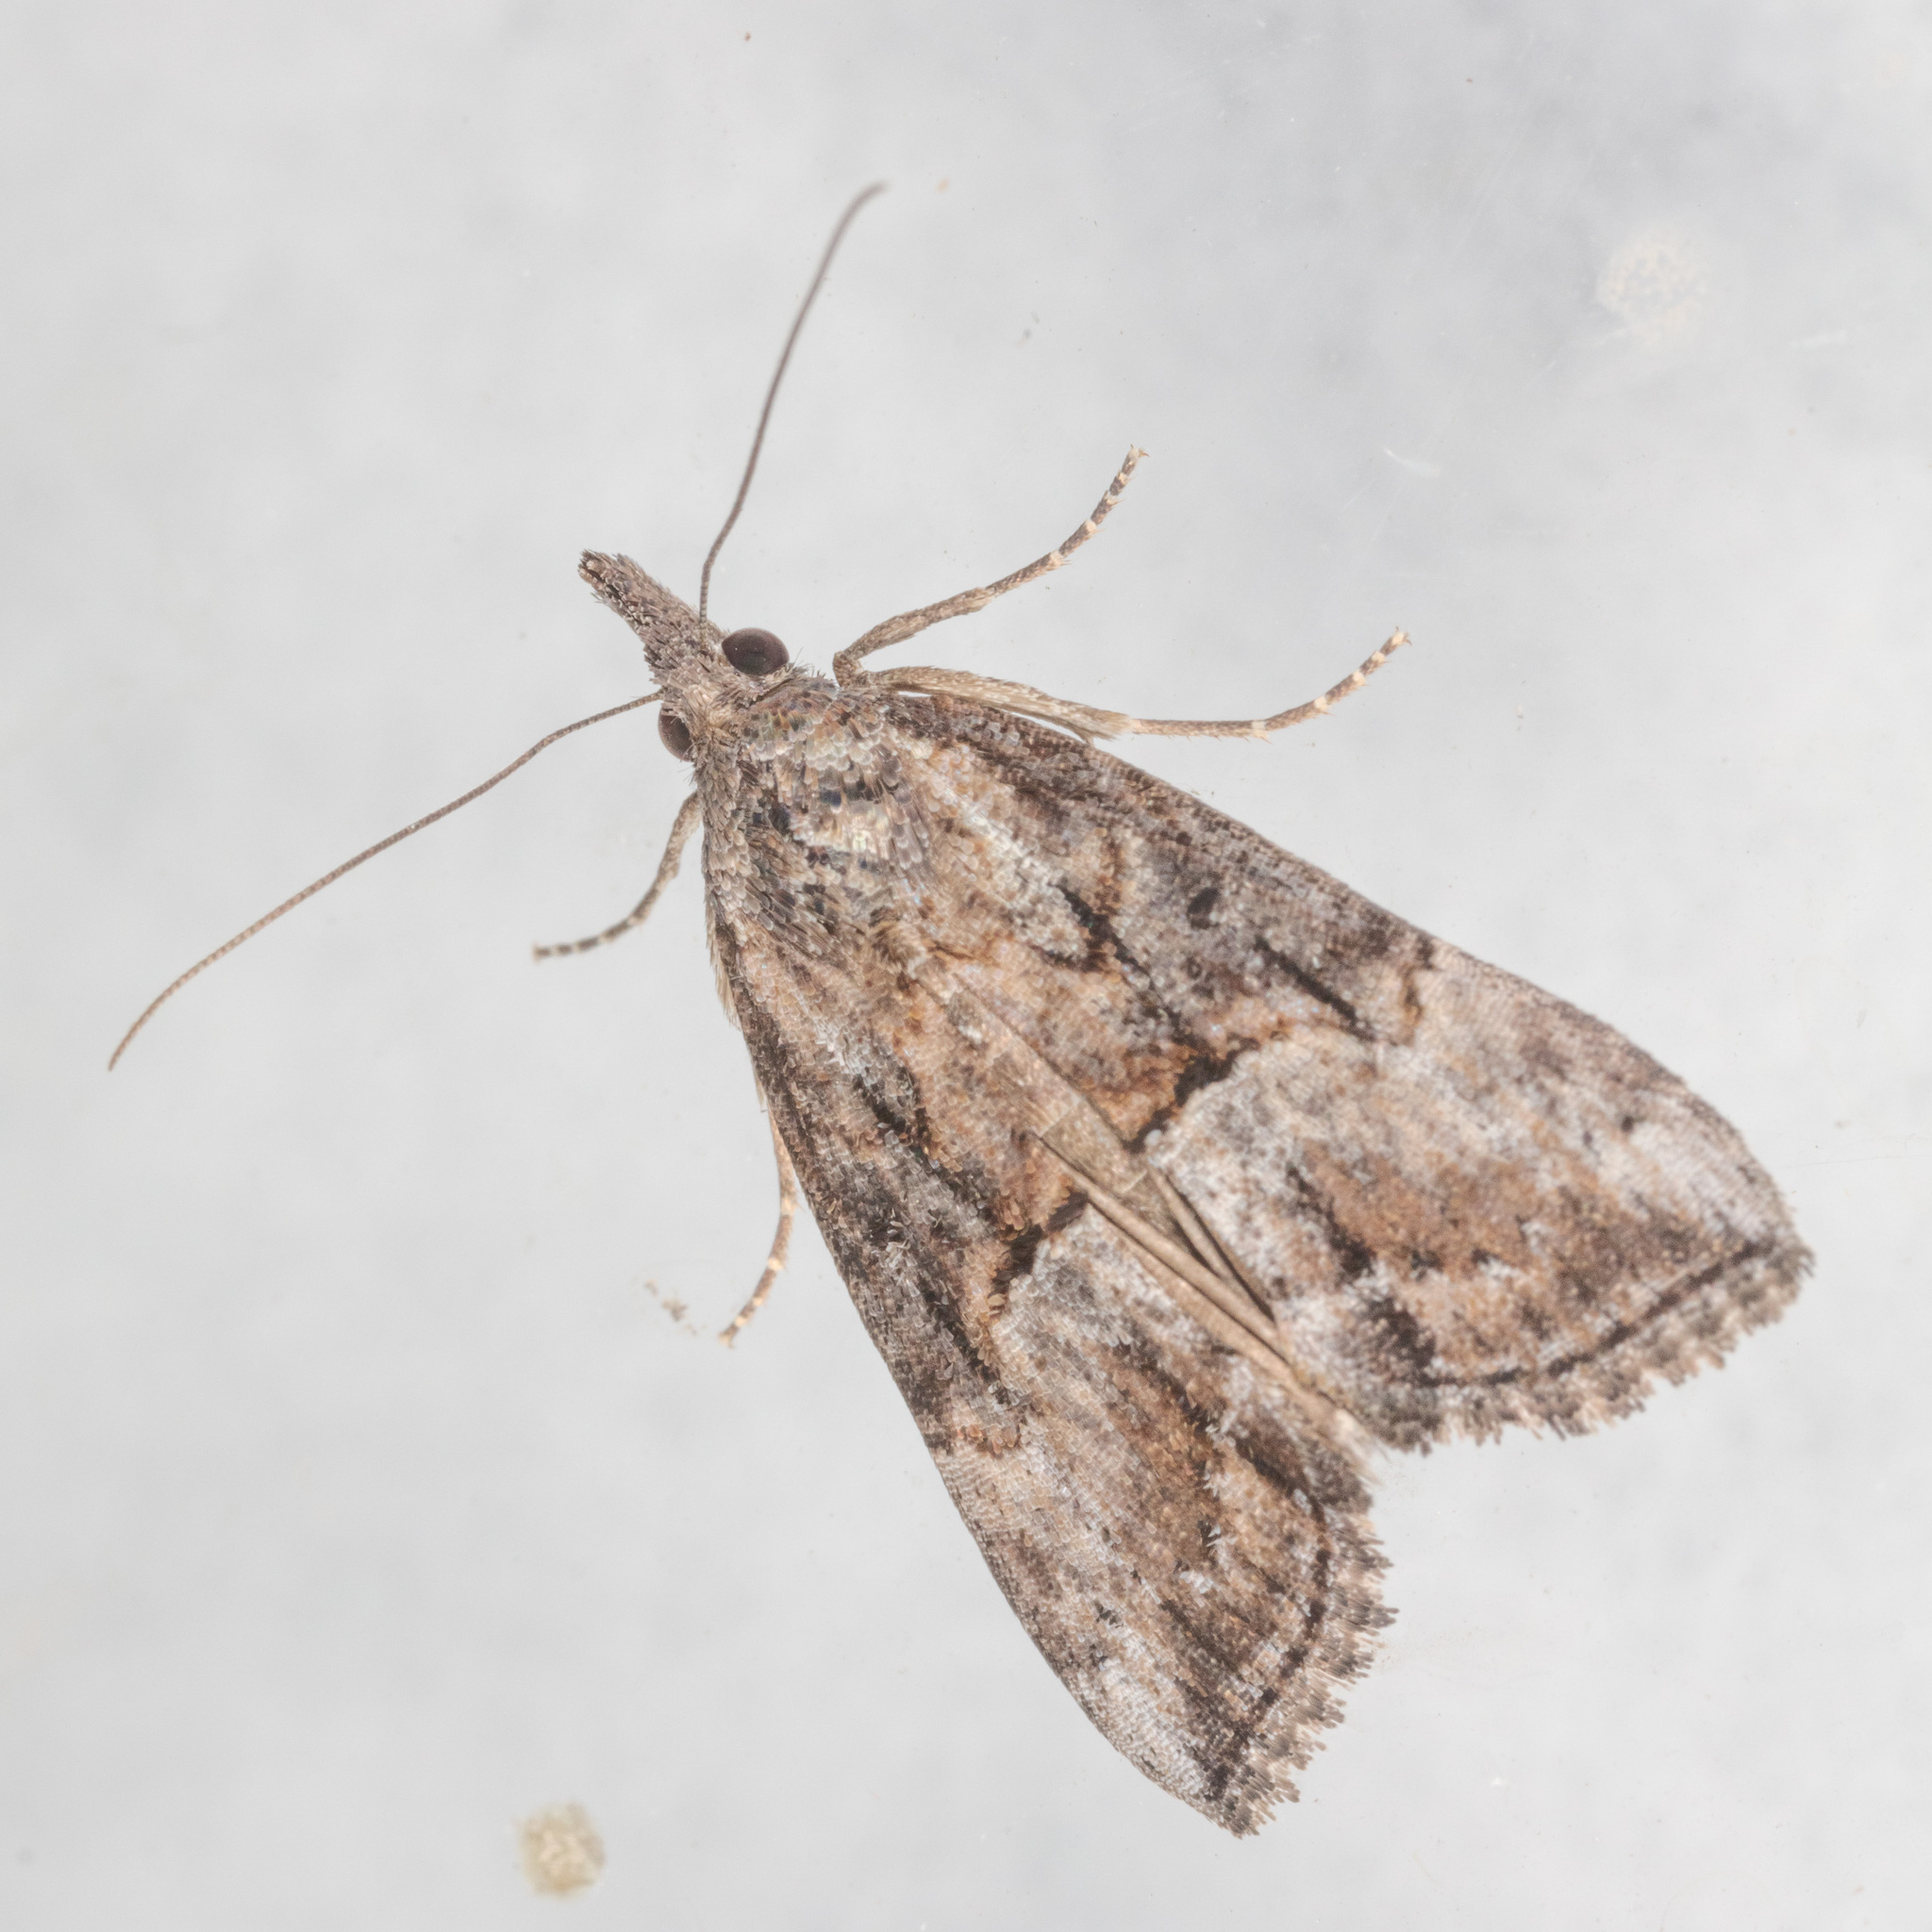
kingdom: Animalia
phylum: Arthropoda
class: Insecta
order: Lepidoptera
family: Erebidae
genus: Hypena
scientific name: Hypena scabra
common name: Green cloverworm
